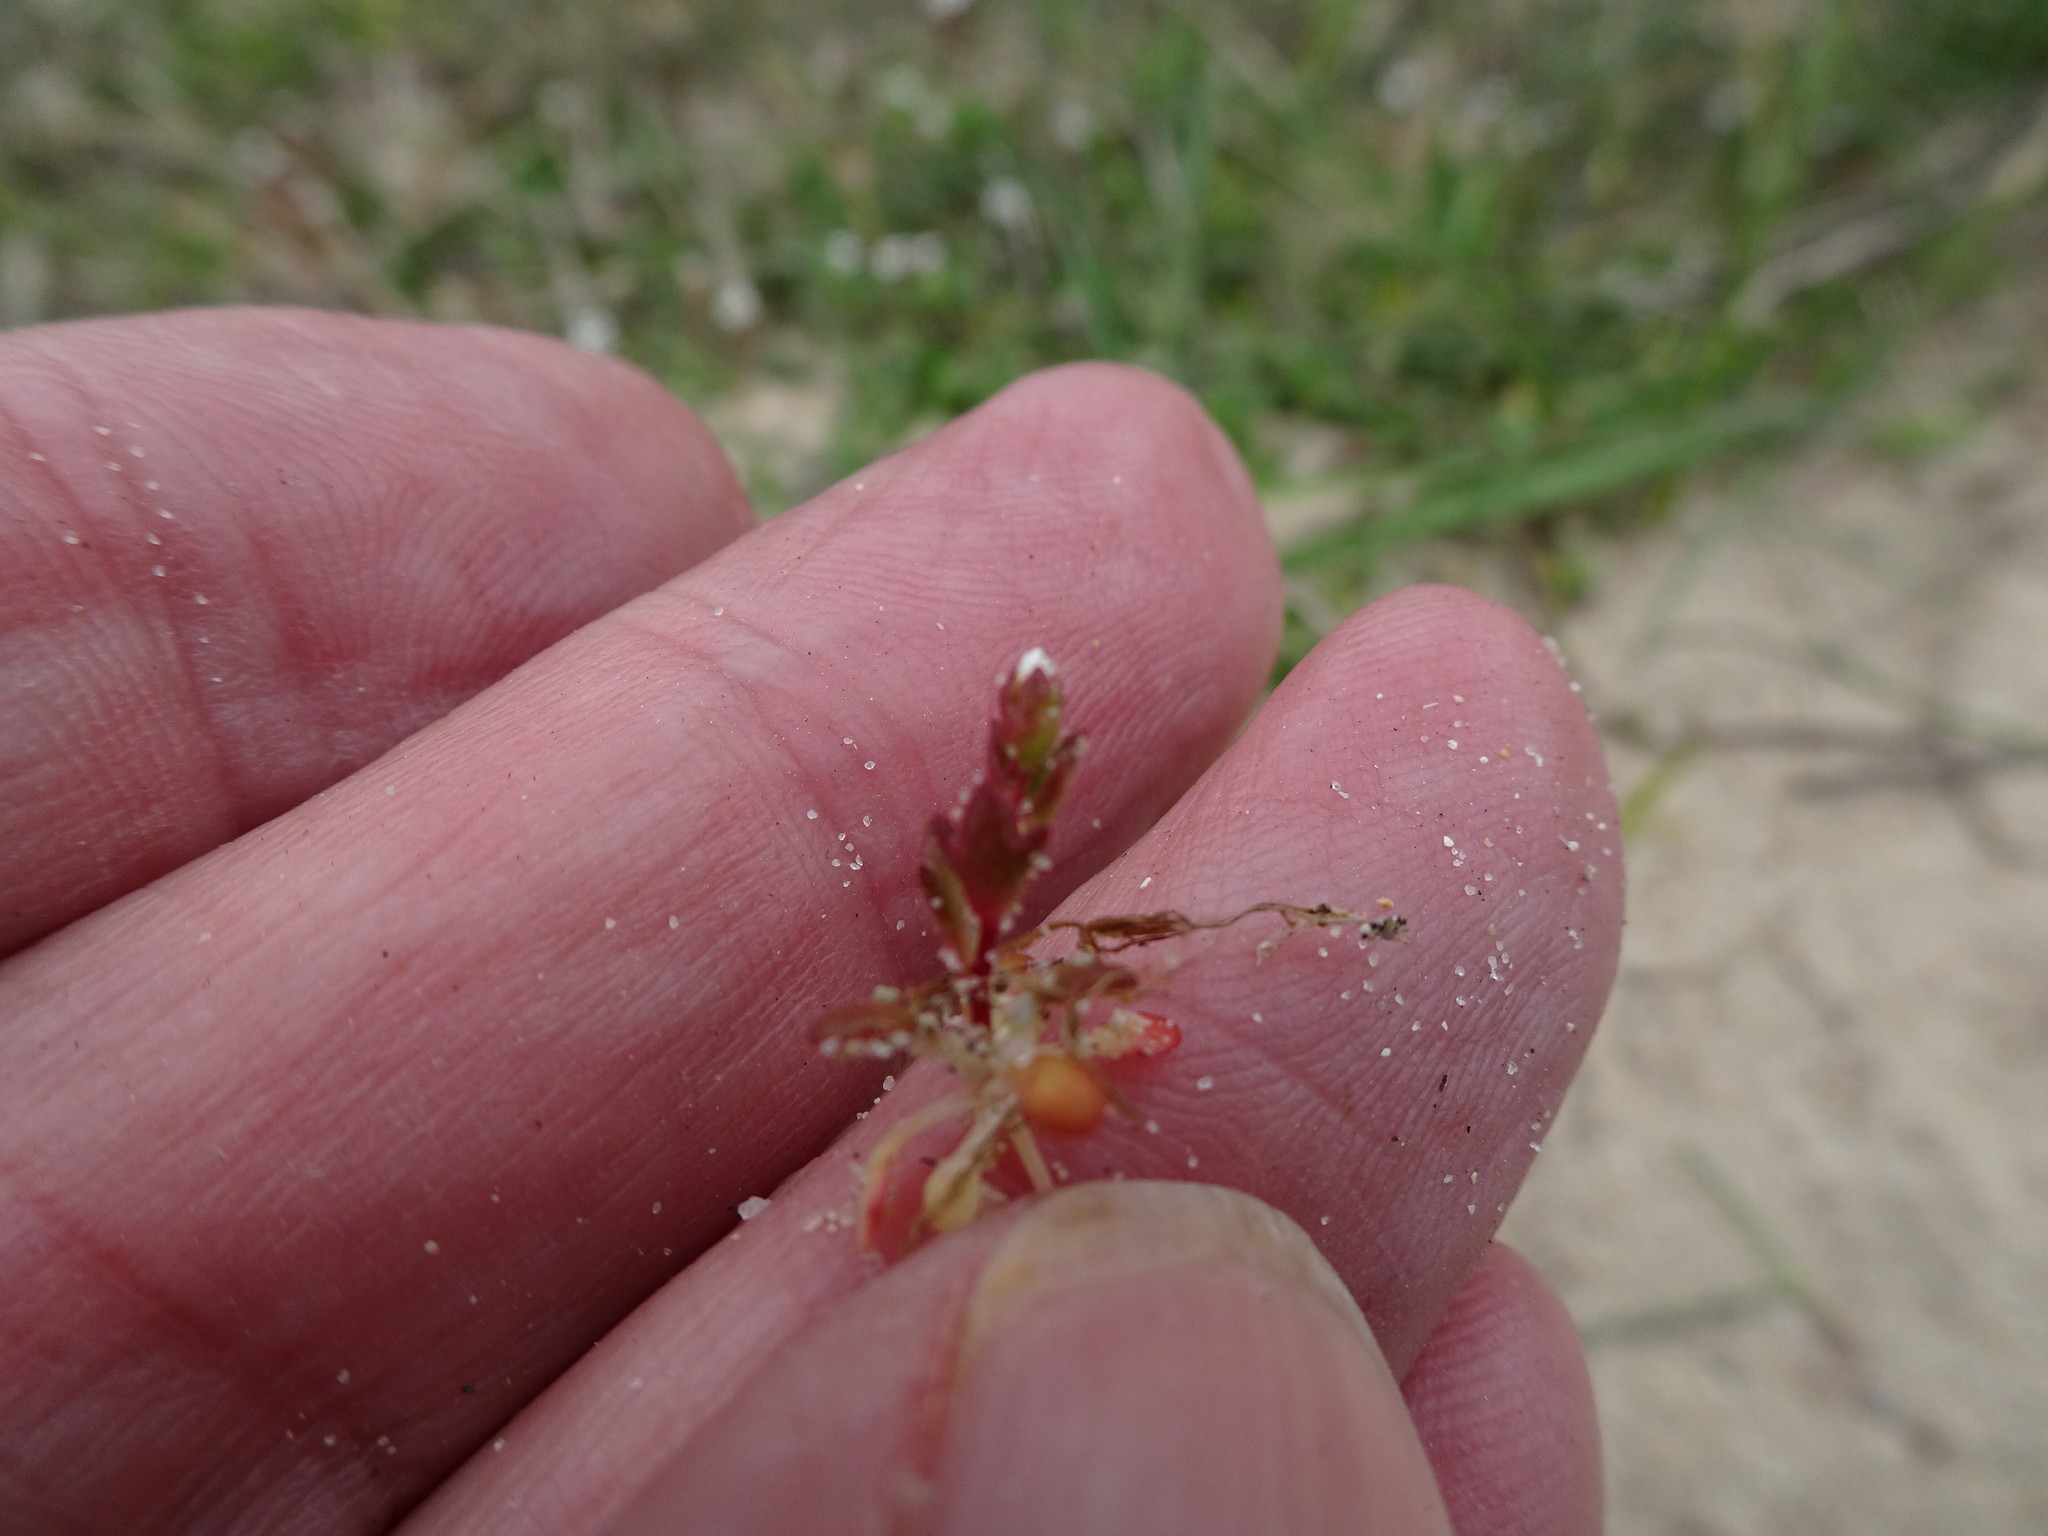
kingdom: Plantae
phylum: Tracheophyta
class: Magnoliopsida
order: Saxifragales
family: Saxifragaceae
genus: Saxifraga
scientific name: Saxifraga tridactylites
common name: Rue-leaved saxifrage
